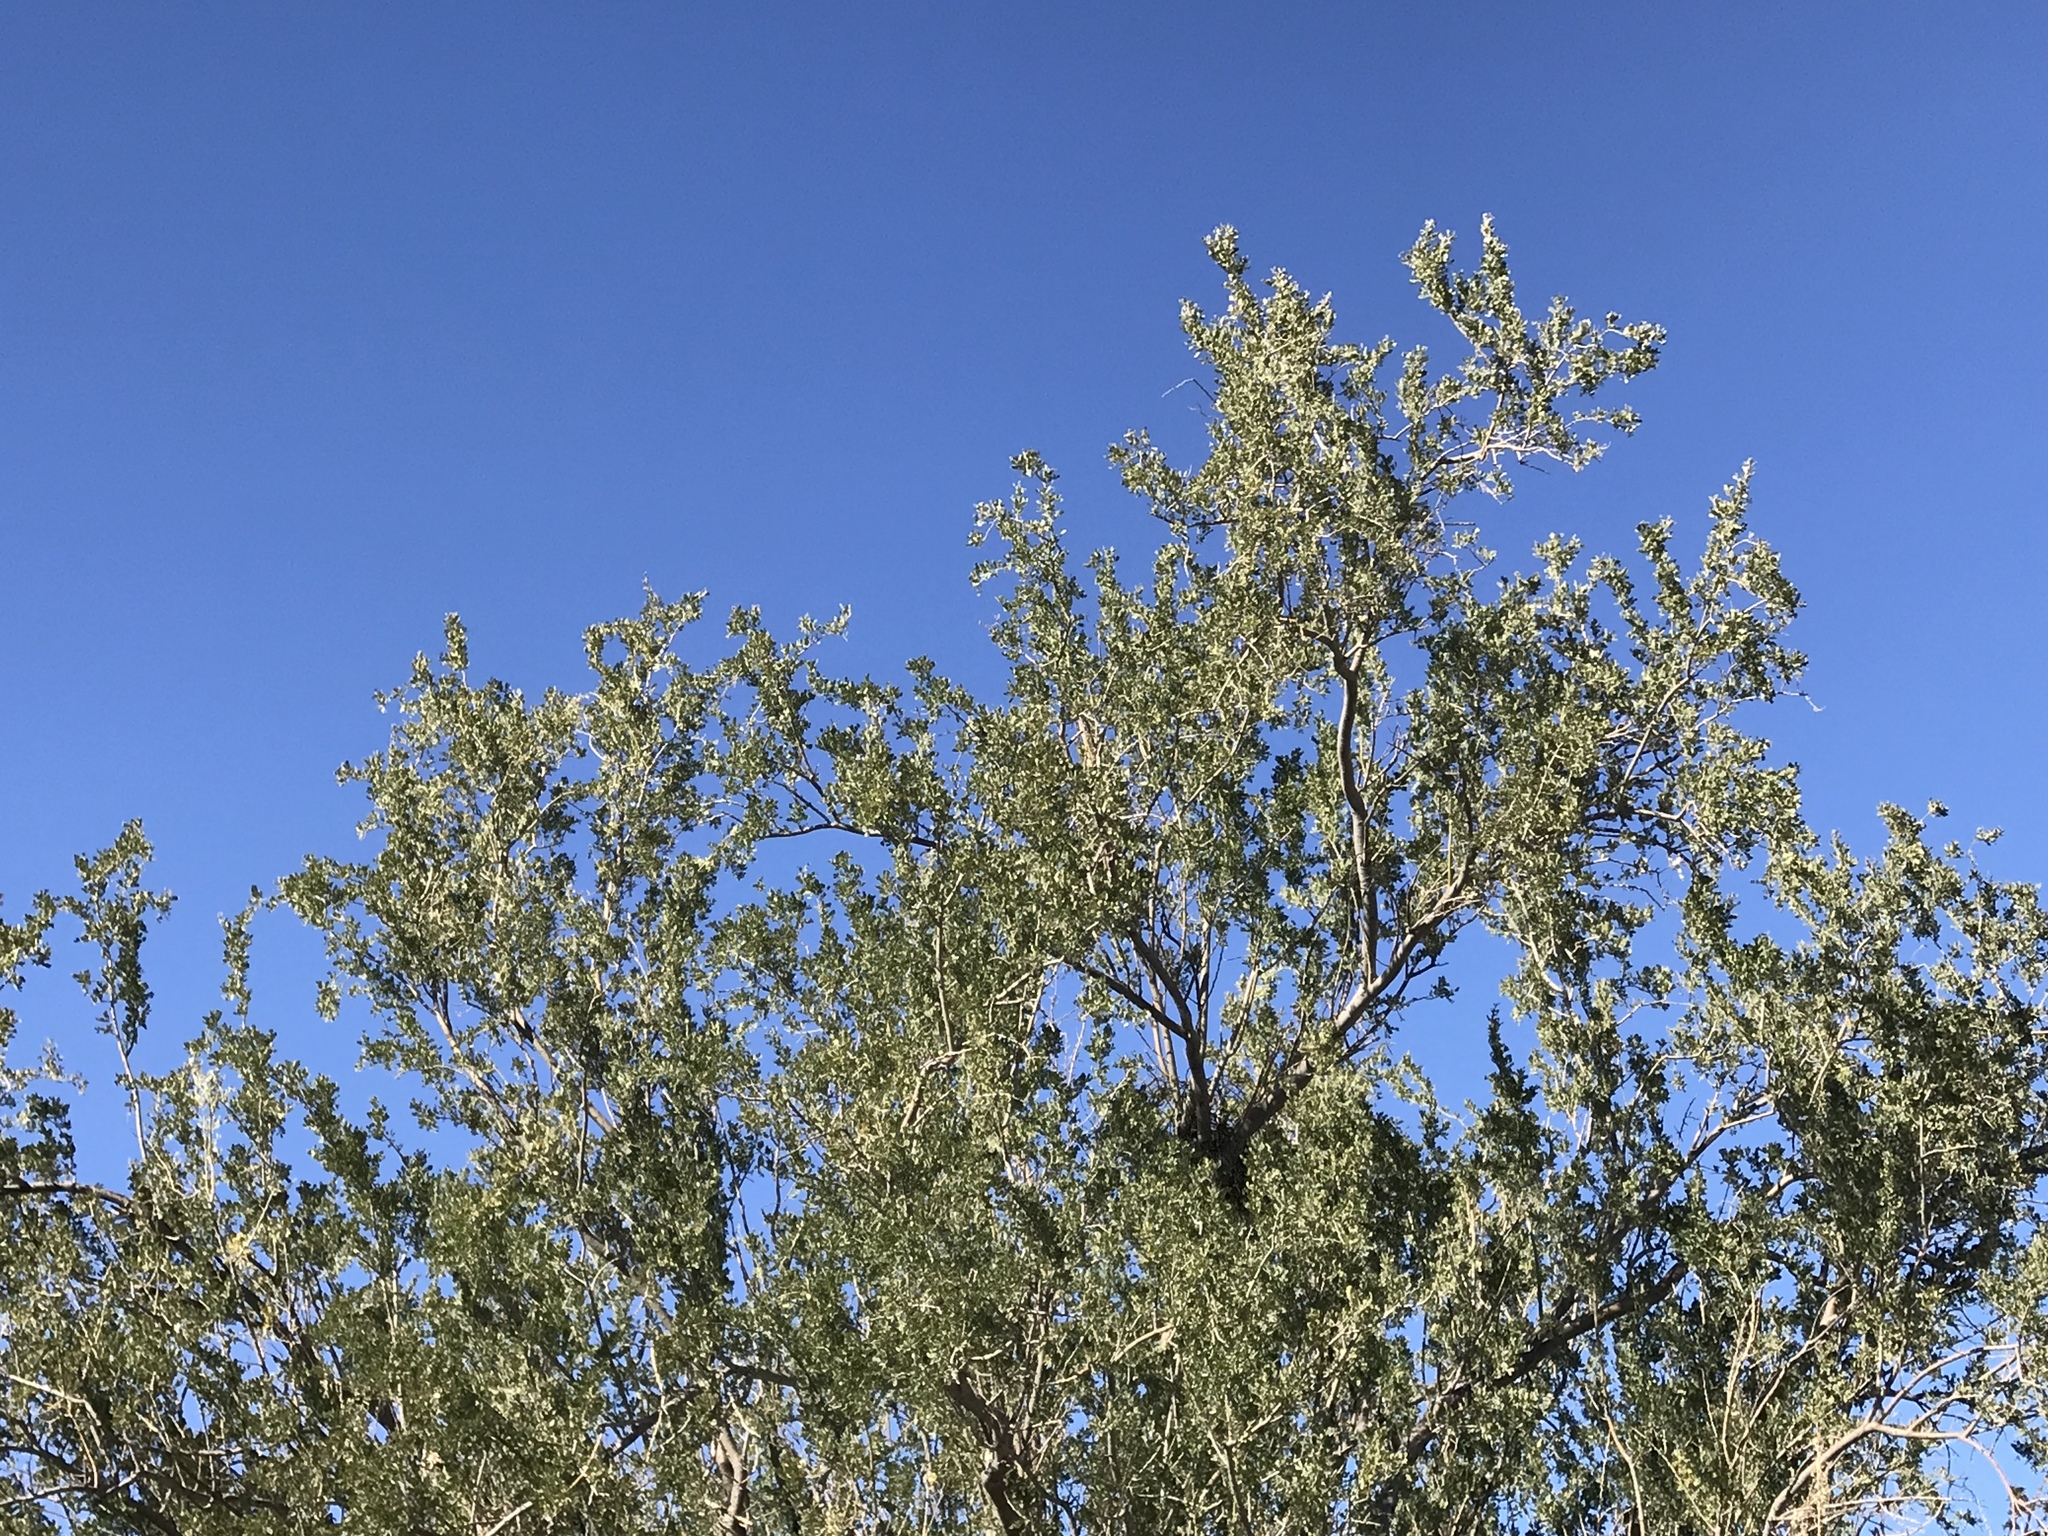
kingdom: Plantae
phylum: Tracheophyta
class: Magnoliopsida
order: Fabales
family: Fabaceae
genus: Olneya
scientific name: Olneya tesota
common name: Desert ironwood
